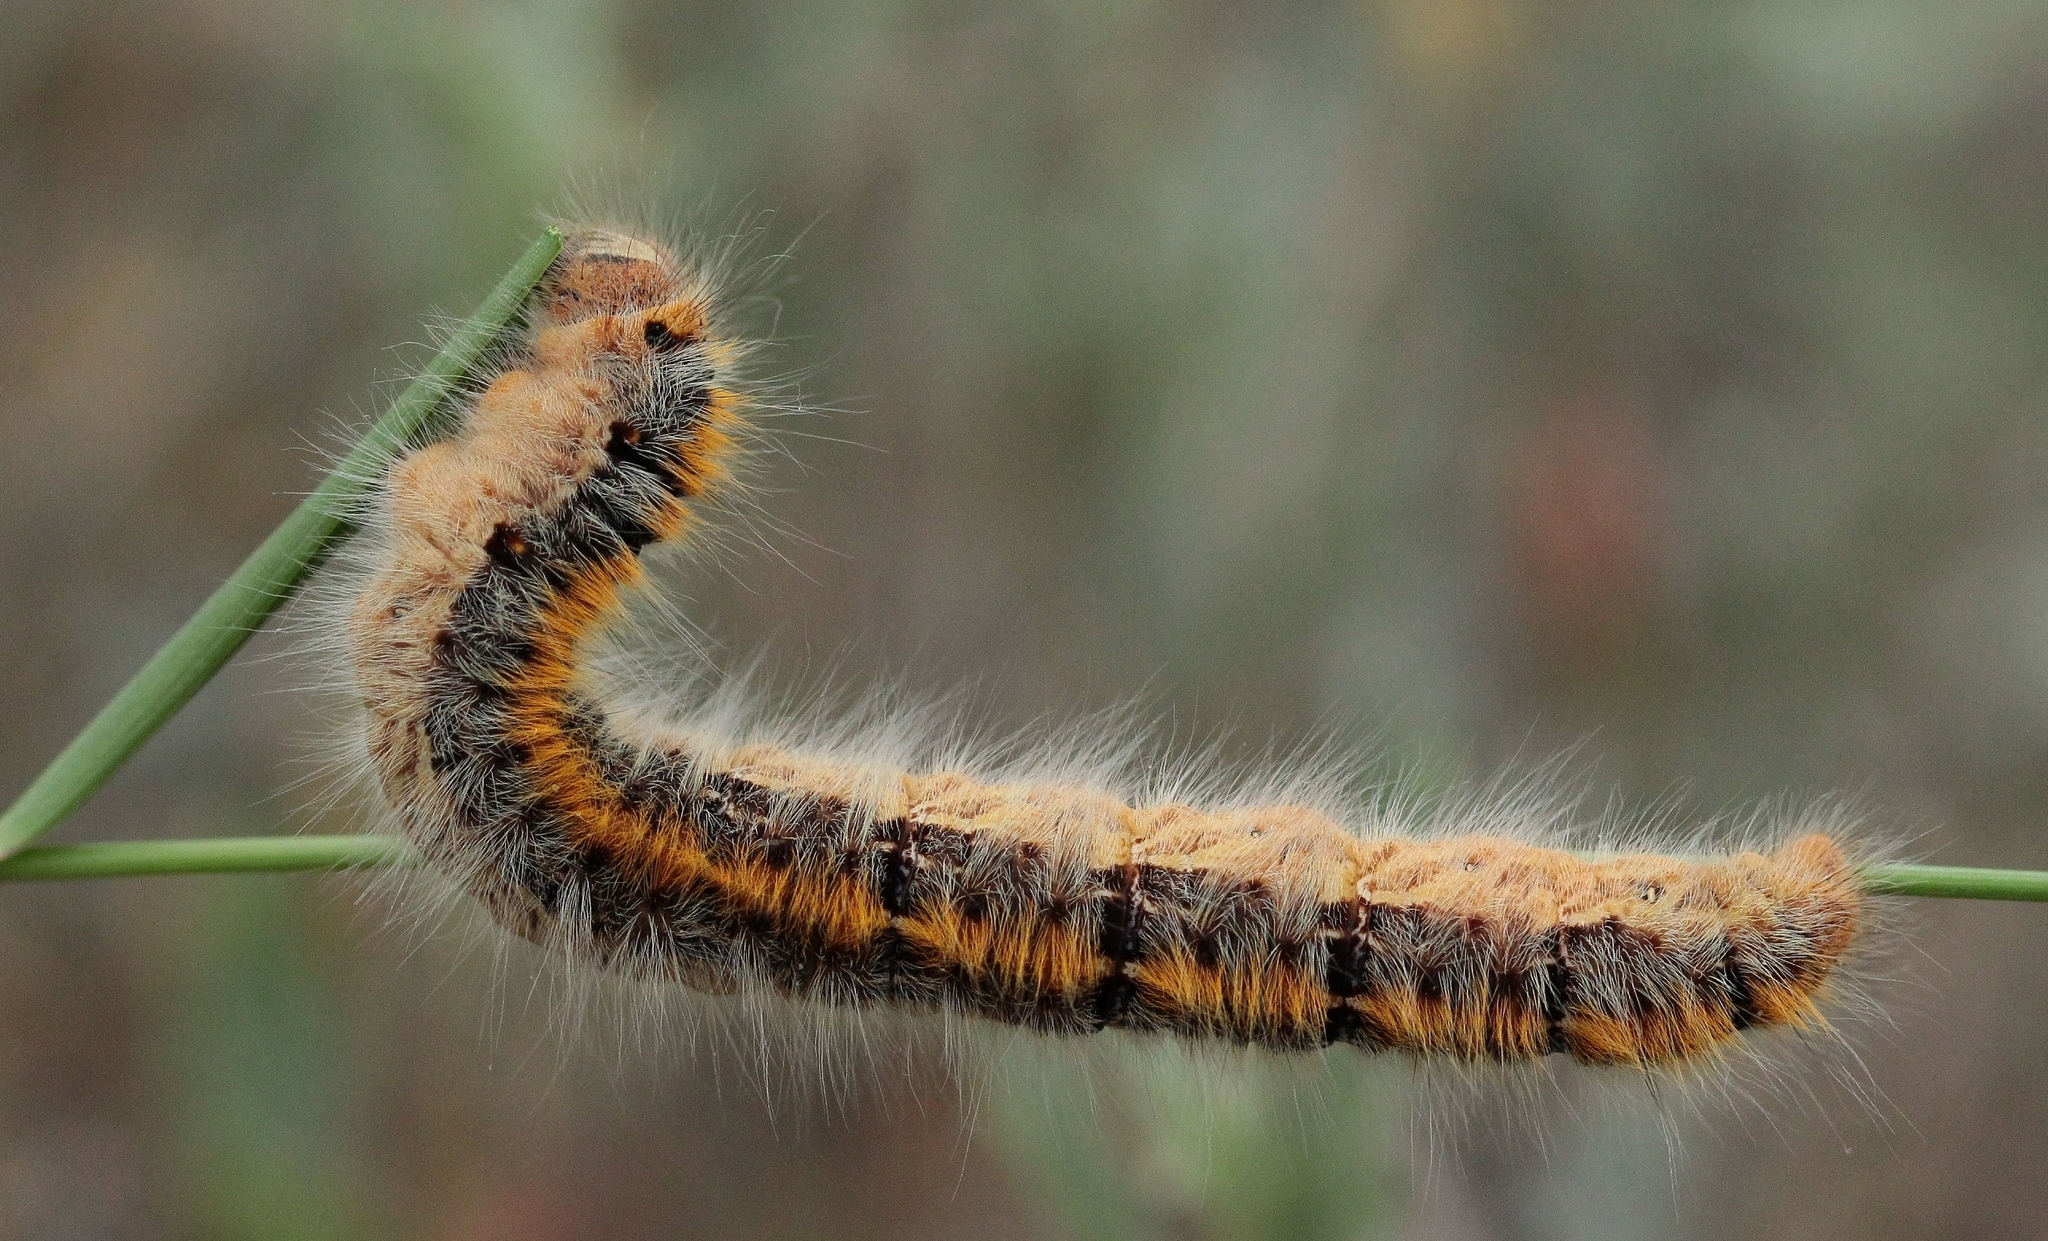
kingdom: Animalia
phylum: Arthropoda
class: Insecta
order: Lepidoptera
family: Lasiocampidae
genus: Lasiocampa
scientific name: Lasiocampa trifolii
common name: Grass eggar
